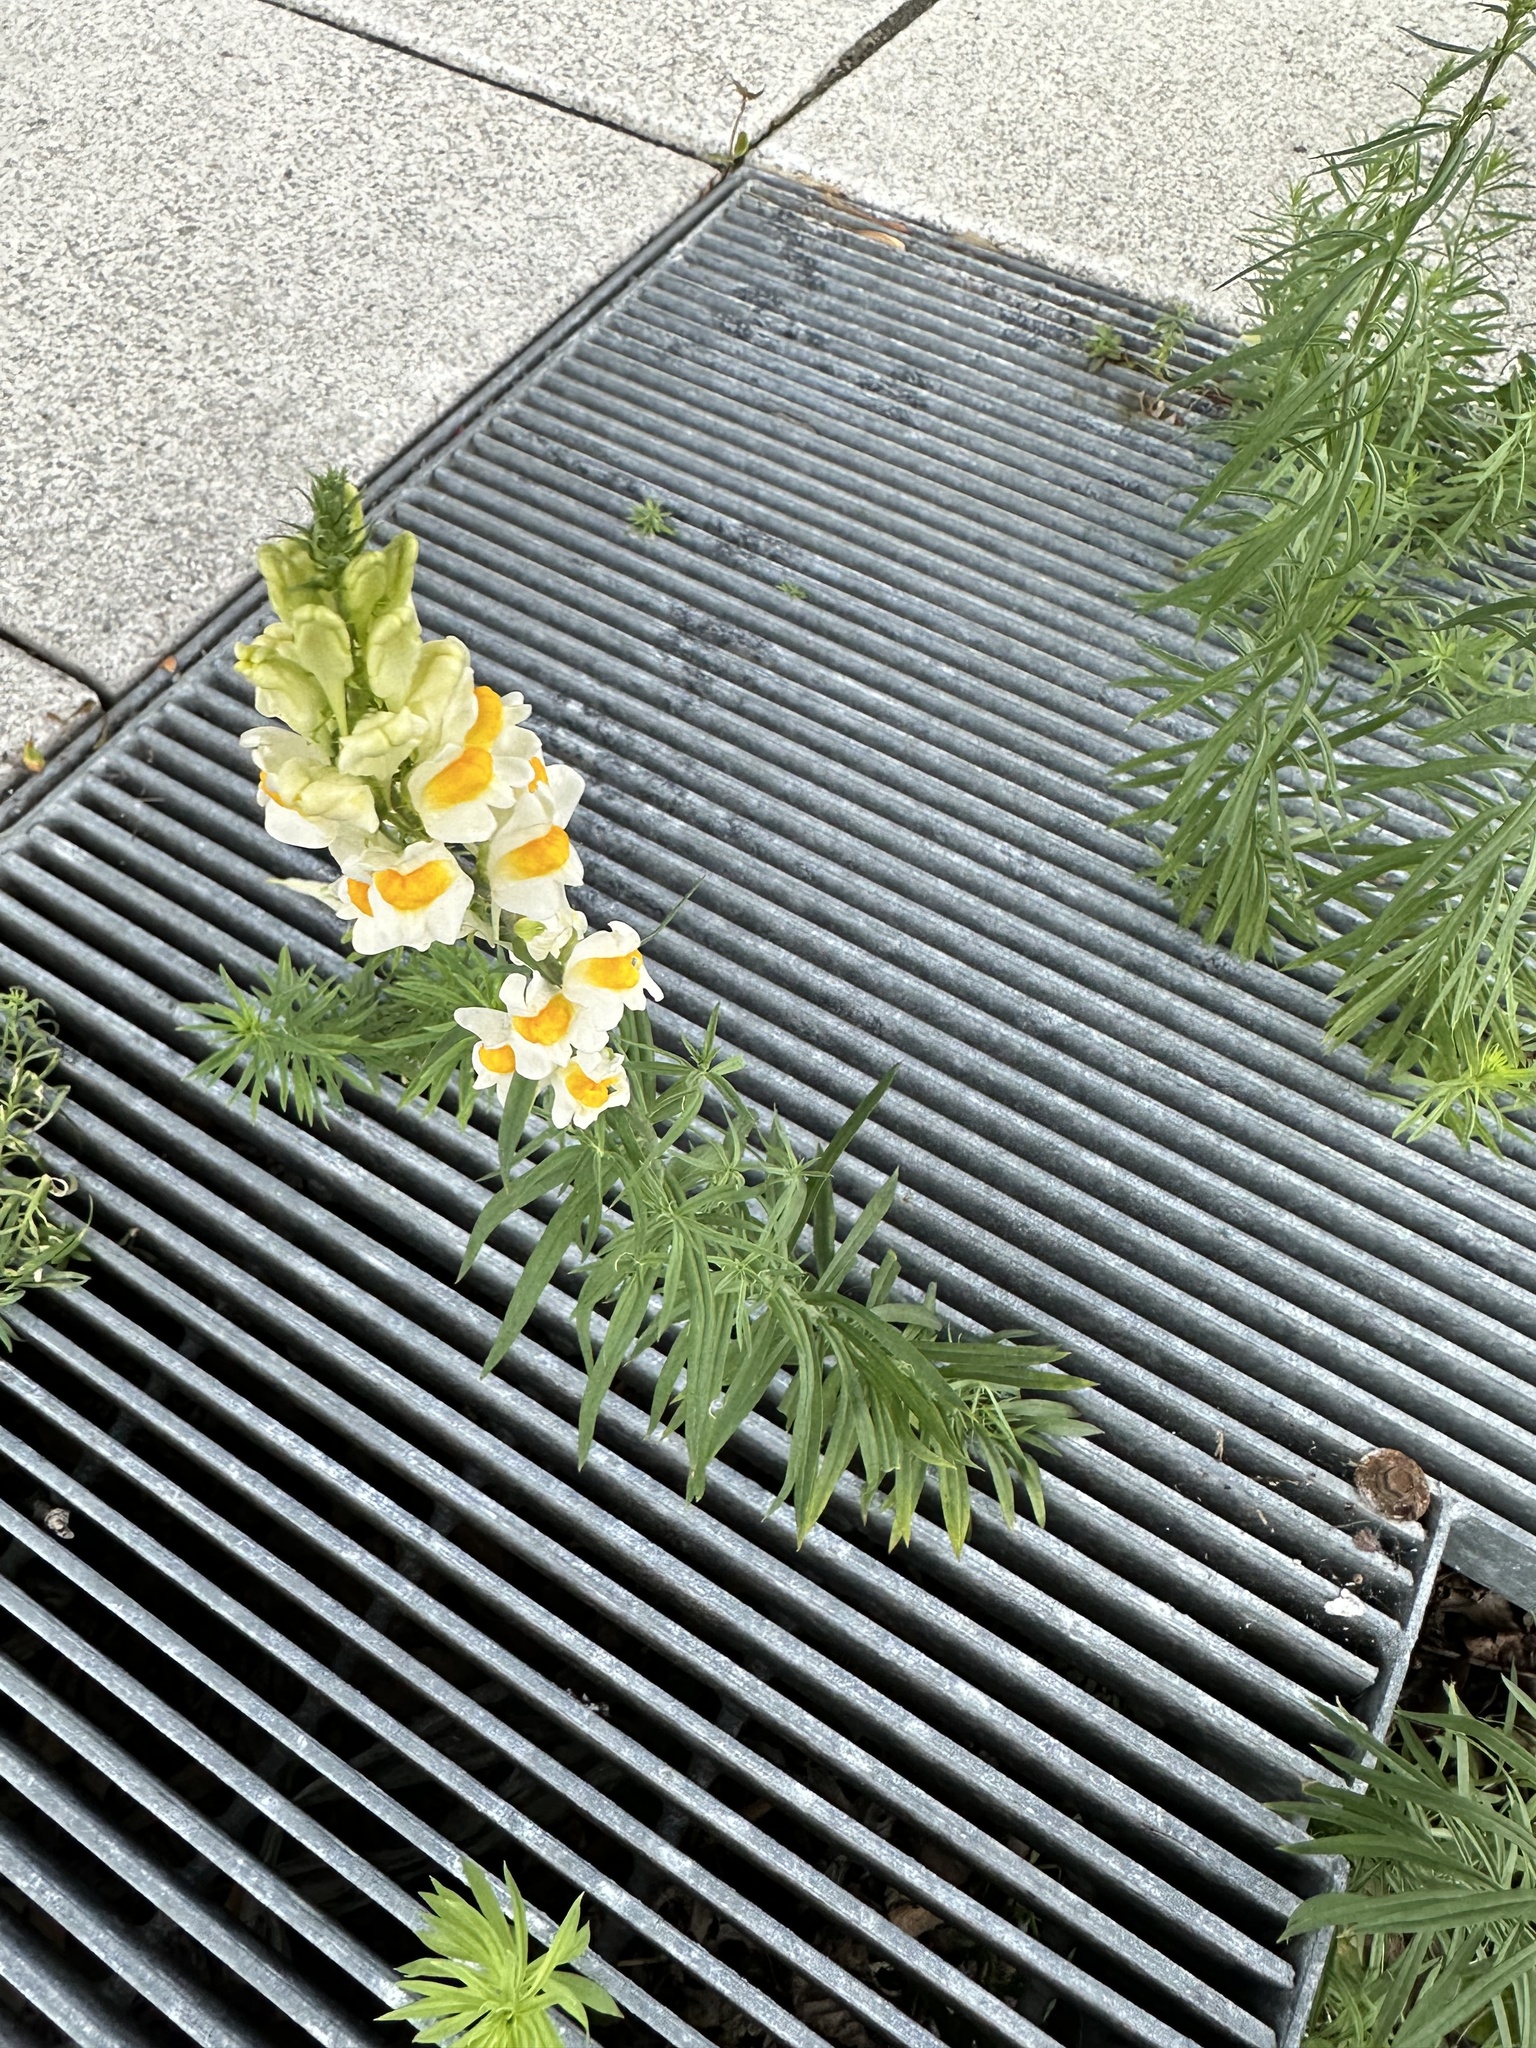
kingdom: Plantae
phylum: Tracheophyta
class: Magnoliopsida
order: Lamiales
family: Plantaginaceae
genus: Linaria
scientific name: Linaria vulgaris
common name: Butter and eggs
